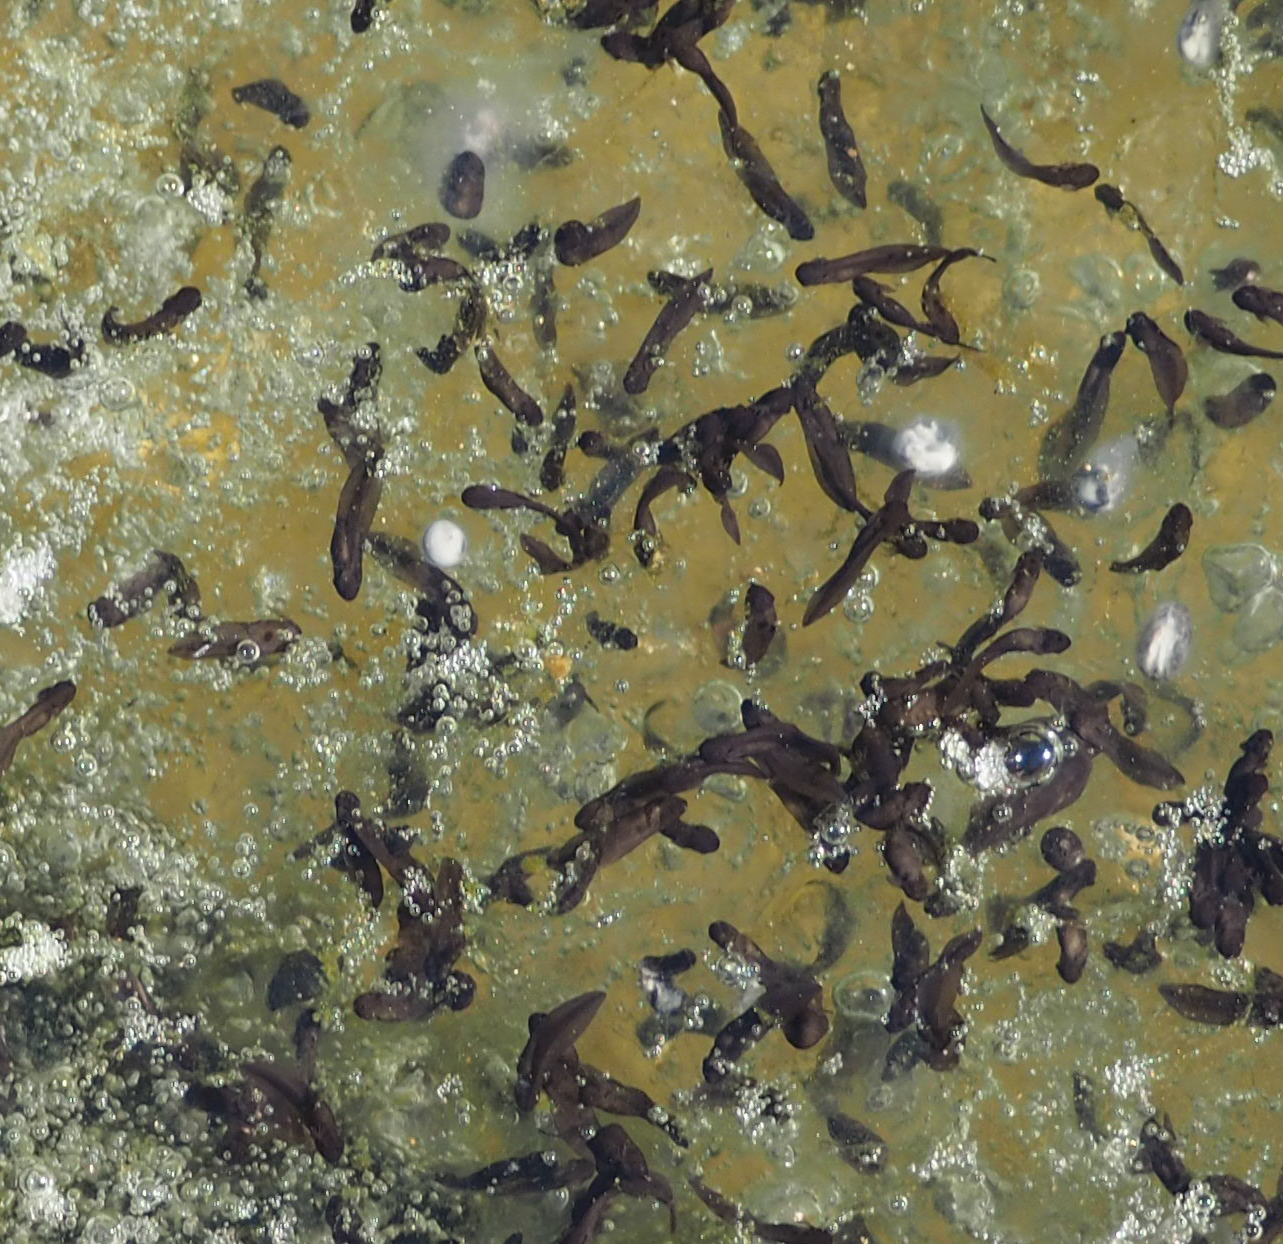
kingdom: Animalia
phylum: Chordata
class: Amphibia
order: Anura
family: Ranidae
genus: Lithobates
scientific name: Lithobates sylvaticus
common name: Wood frog
